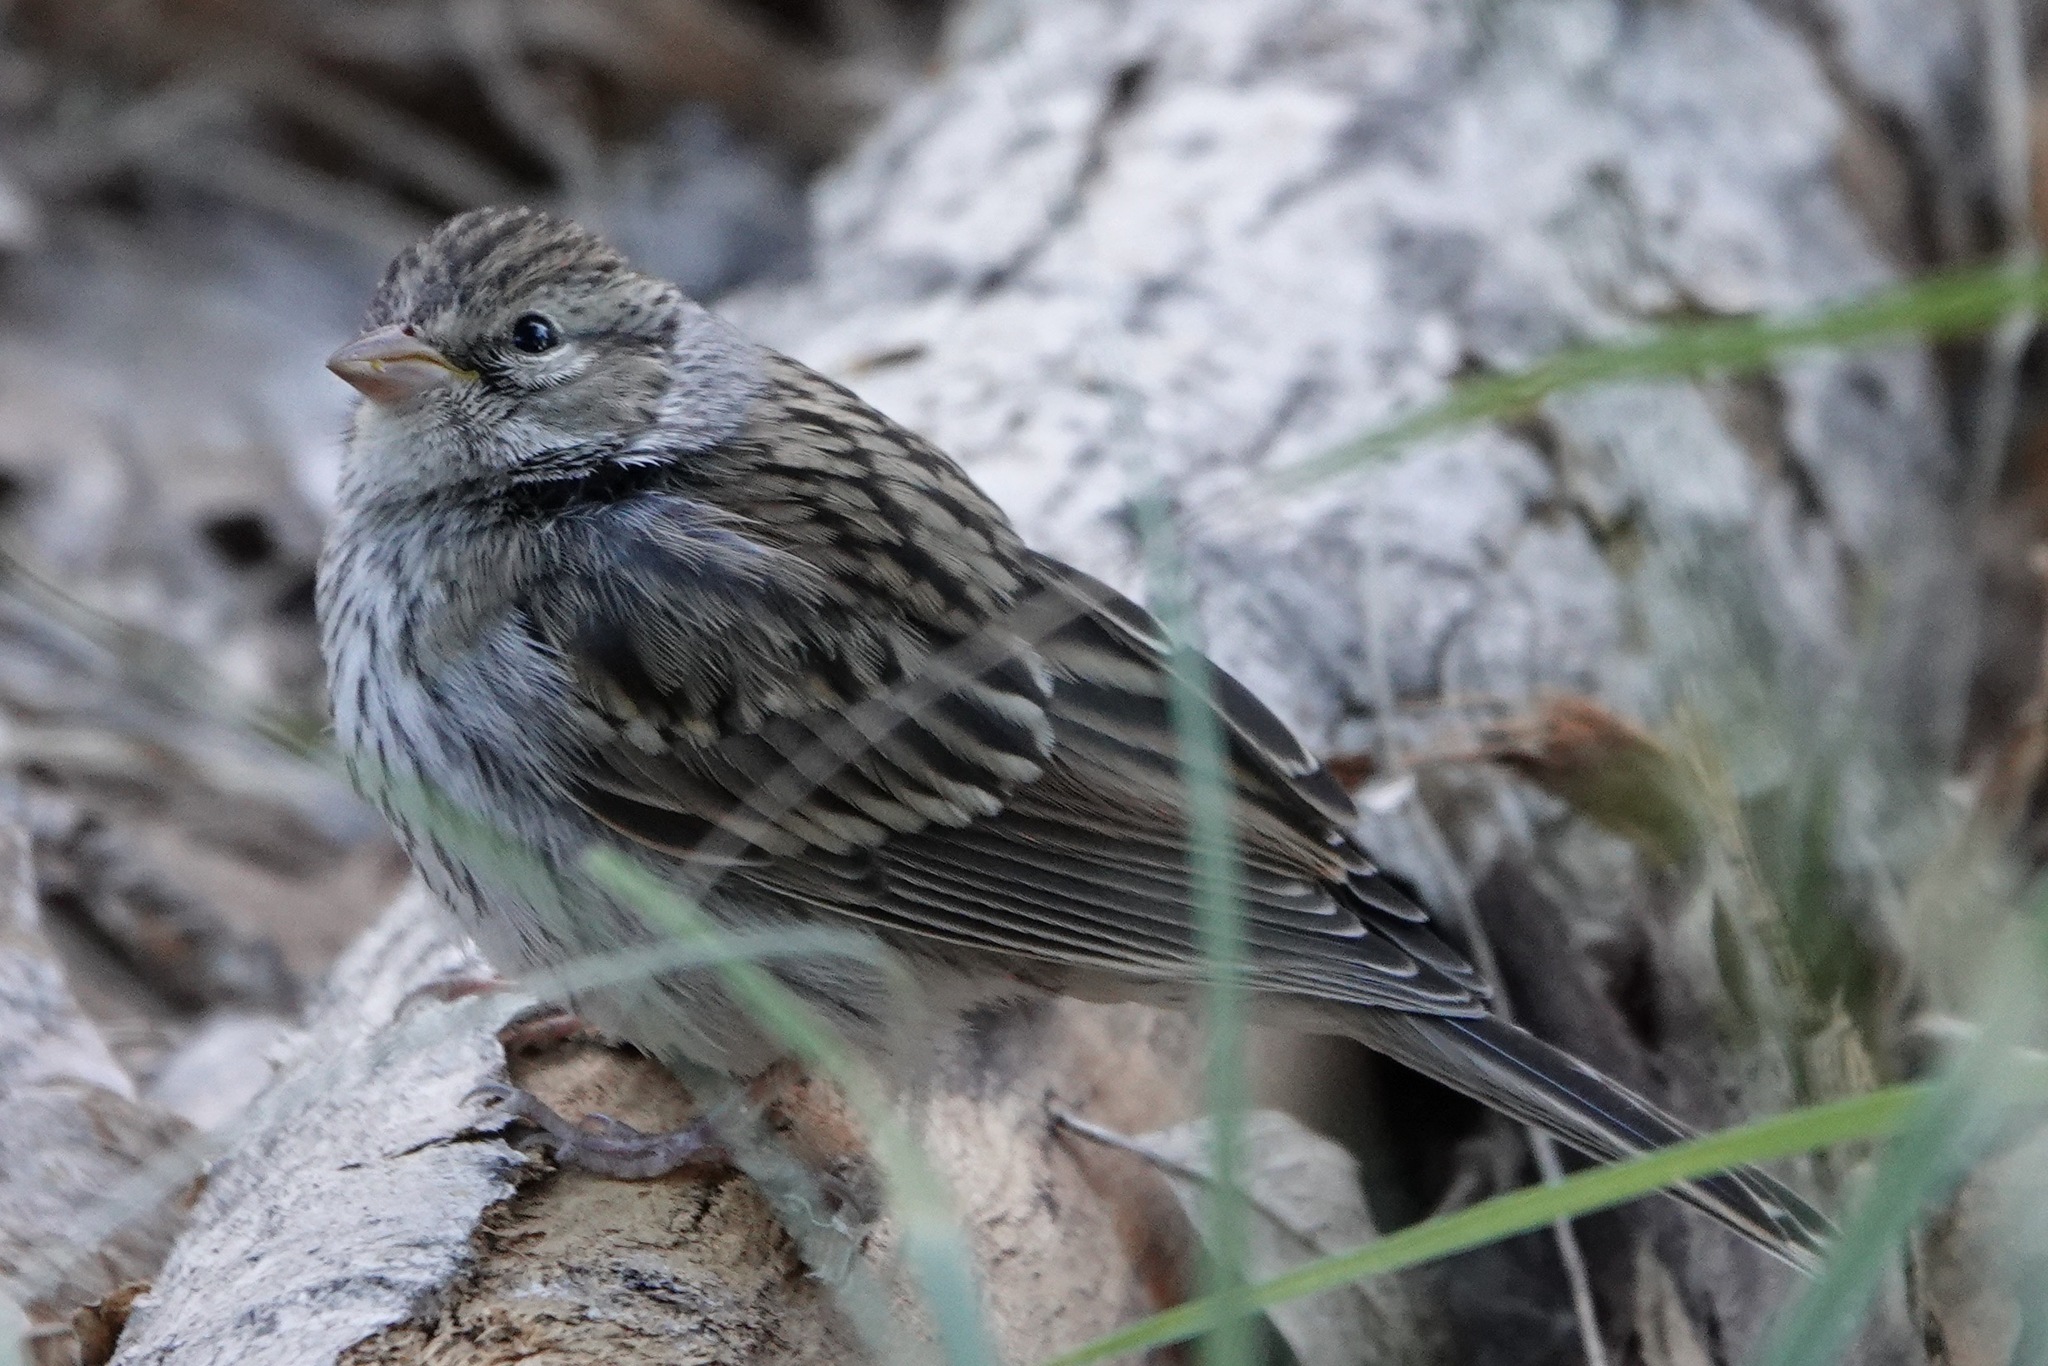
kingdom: Animalia
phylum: Chordata
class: Aves
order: Passeriformes
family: Passerellidae
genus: Spizella
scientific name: Spizella passerina
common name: Chipping sparrow
